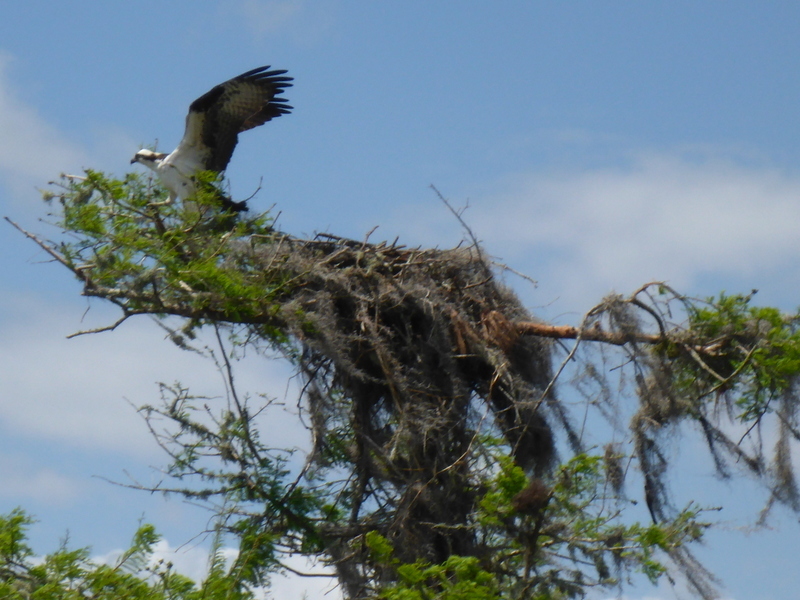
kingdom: Animalia
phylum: Chordata
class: Aves
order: Accipitriformes
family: Pandionidae
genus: Pandion
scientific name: Pandion haliaetus
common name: Osprey
